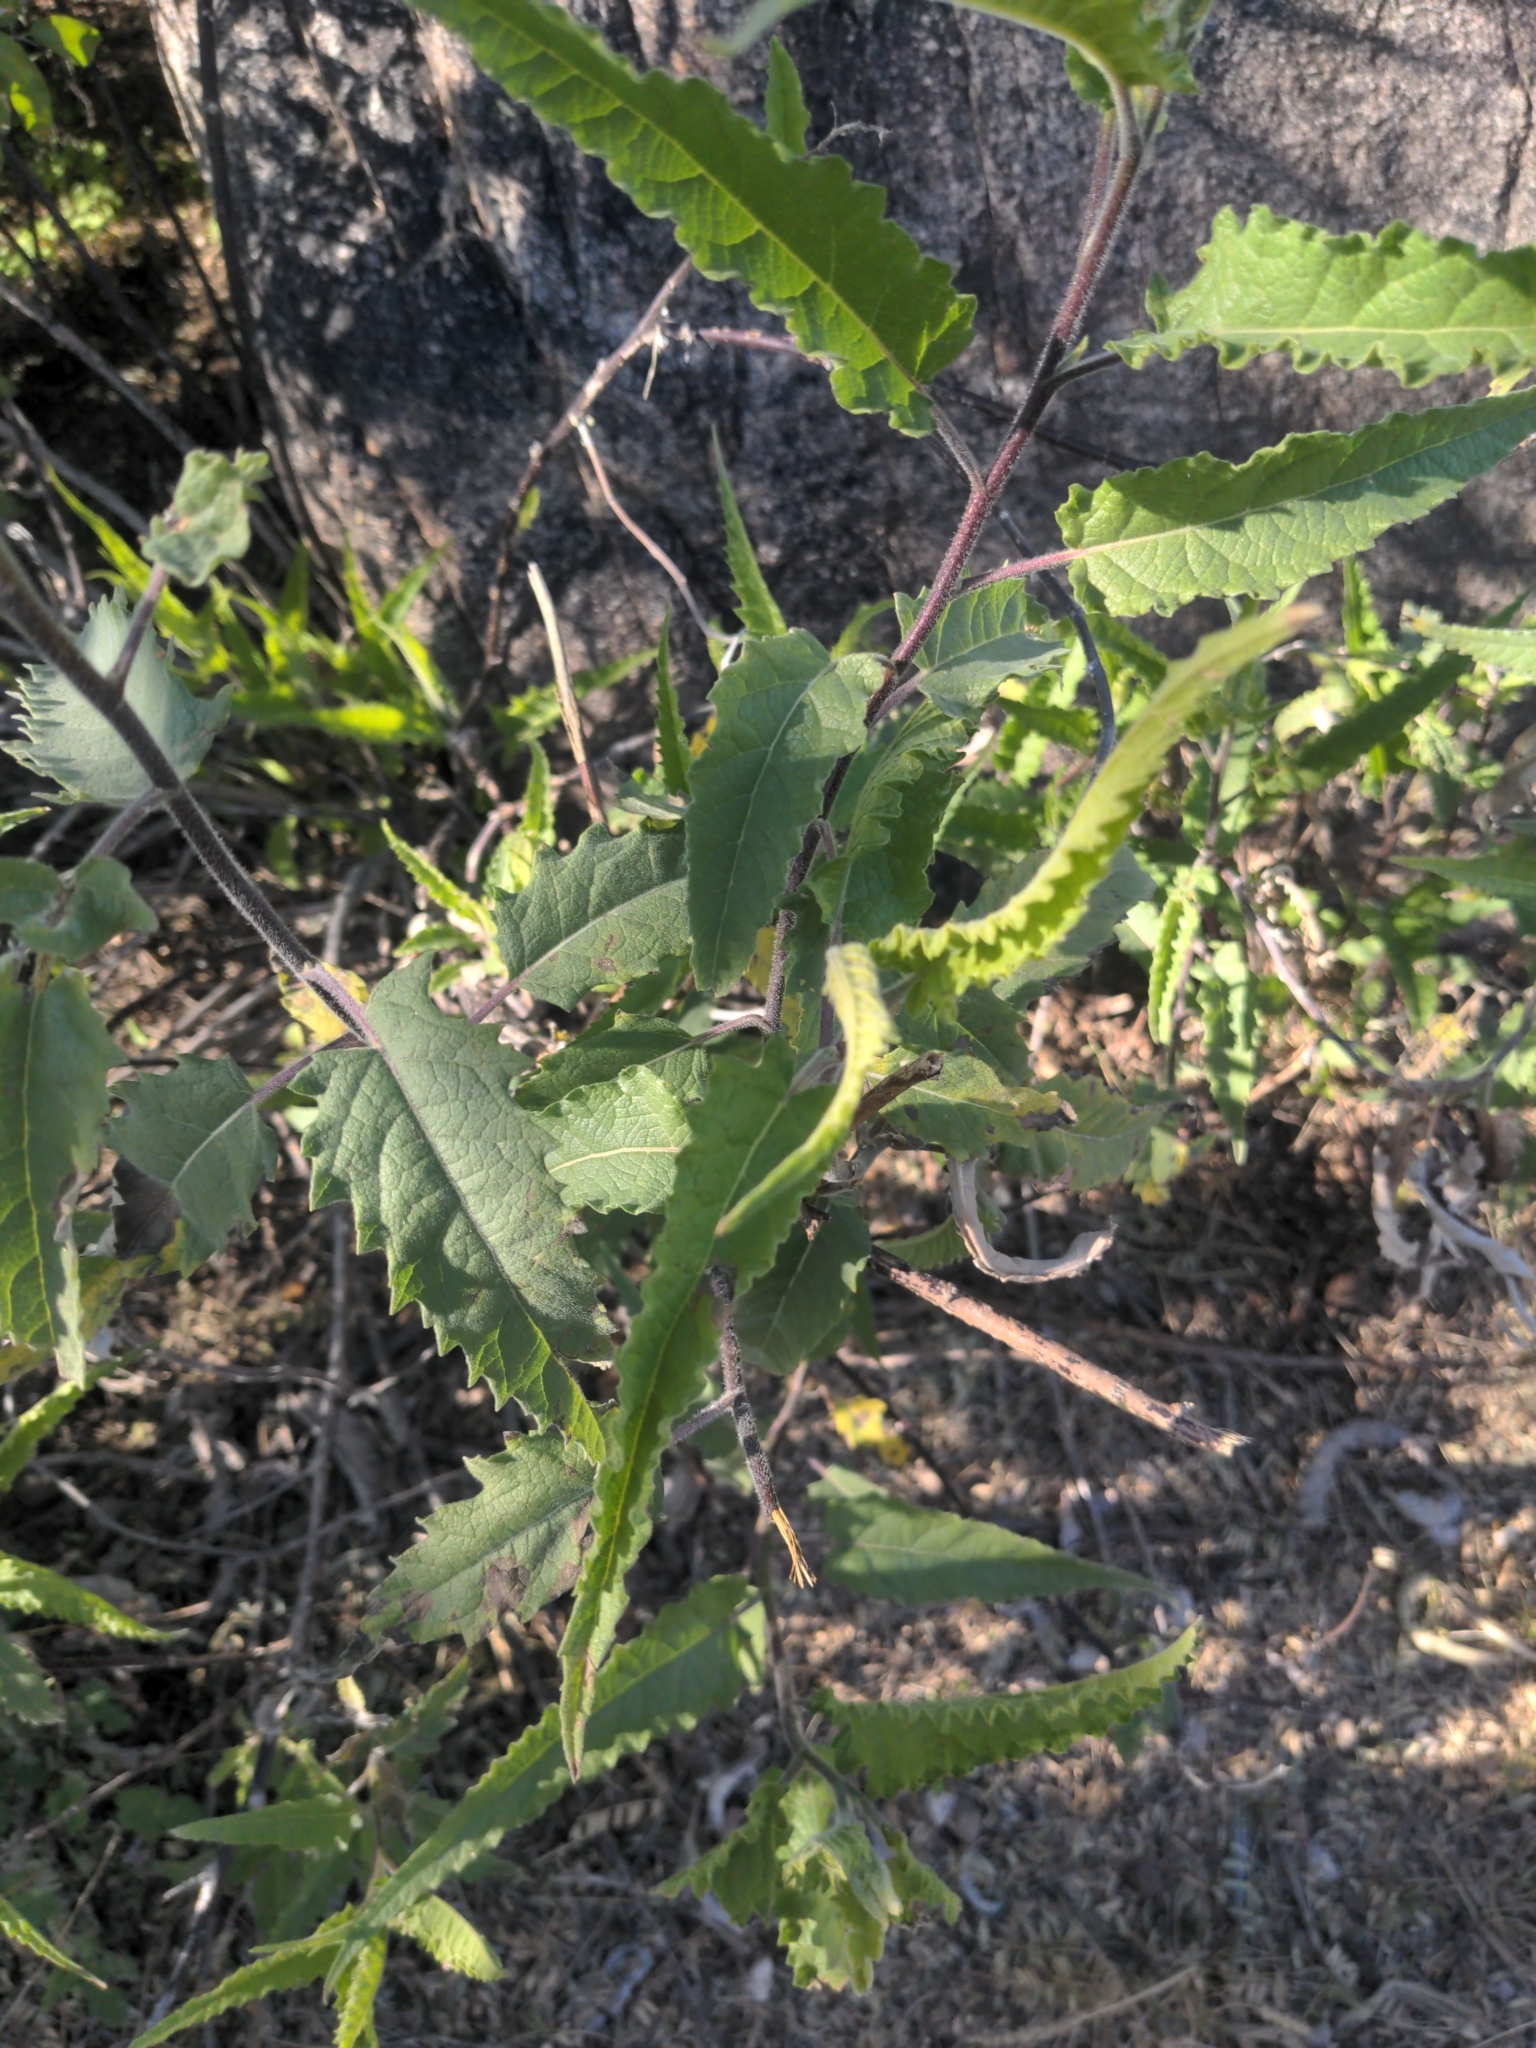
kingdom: Plantae
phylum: Tracheophyta
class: Magnoliopsida
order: Asterales
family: Asteraceae
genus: Ambrosia
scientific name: Ambrosia ambrosioides
